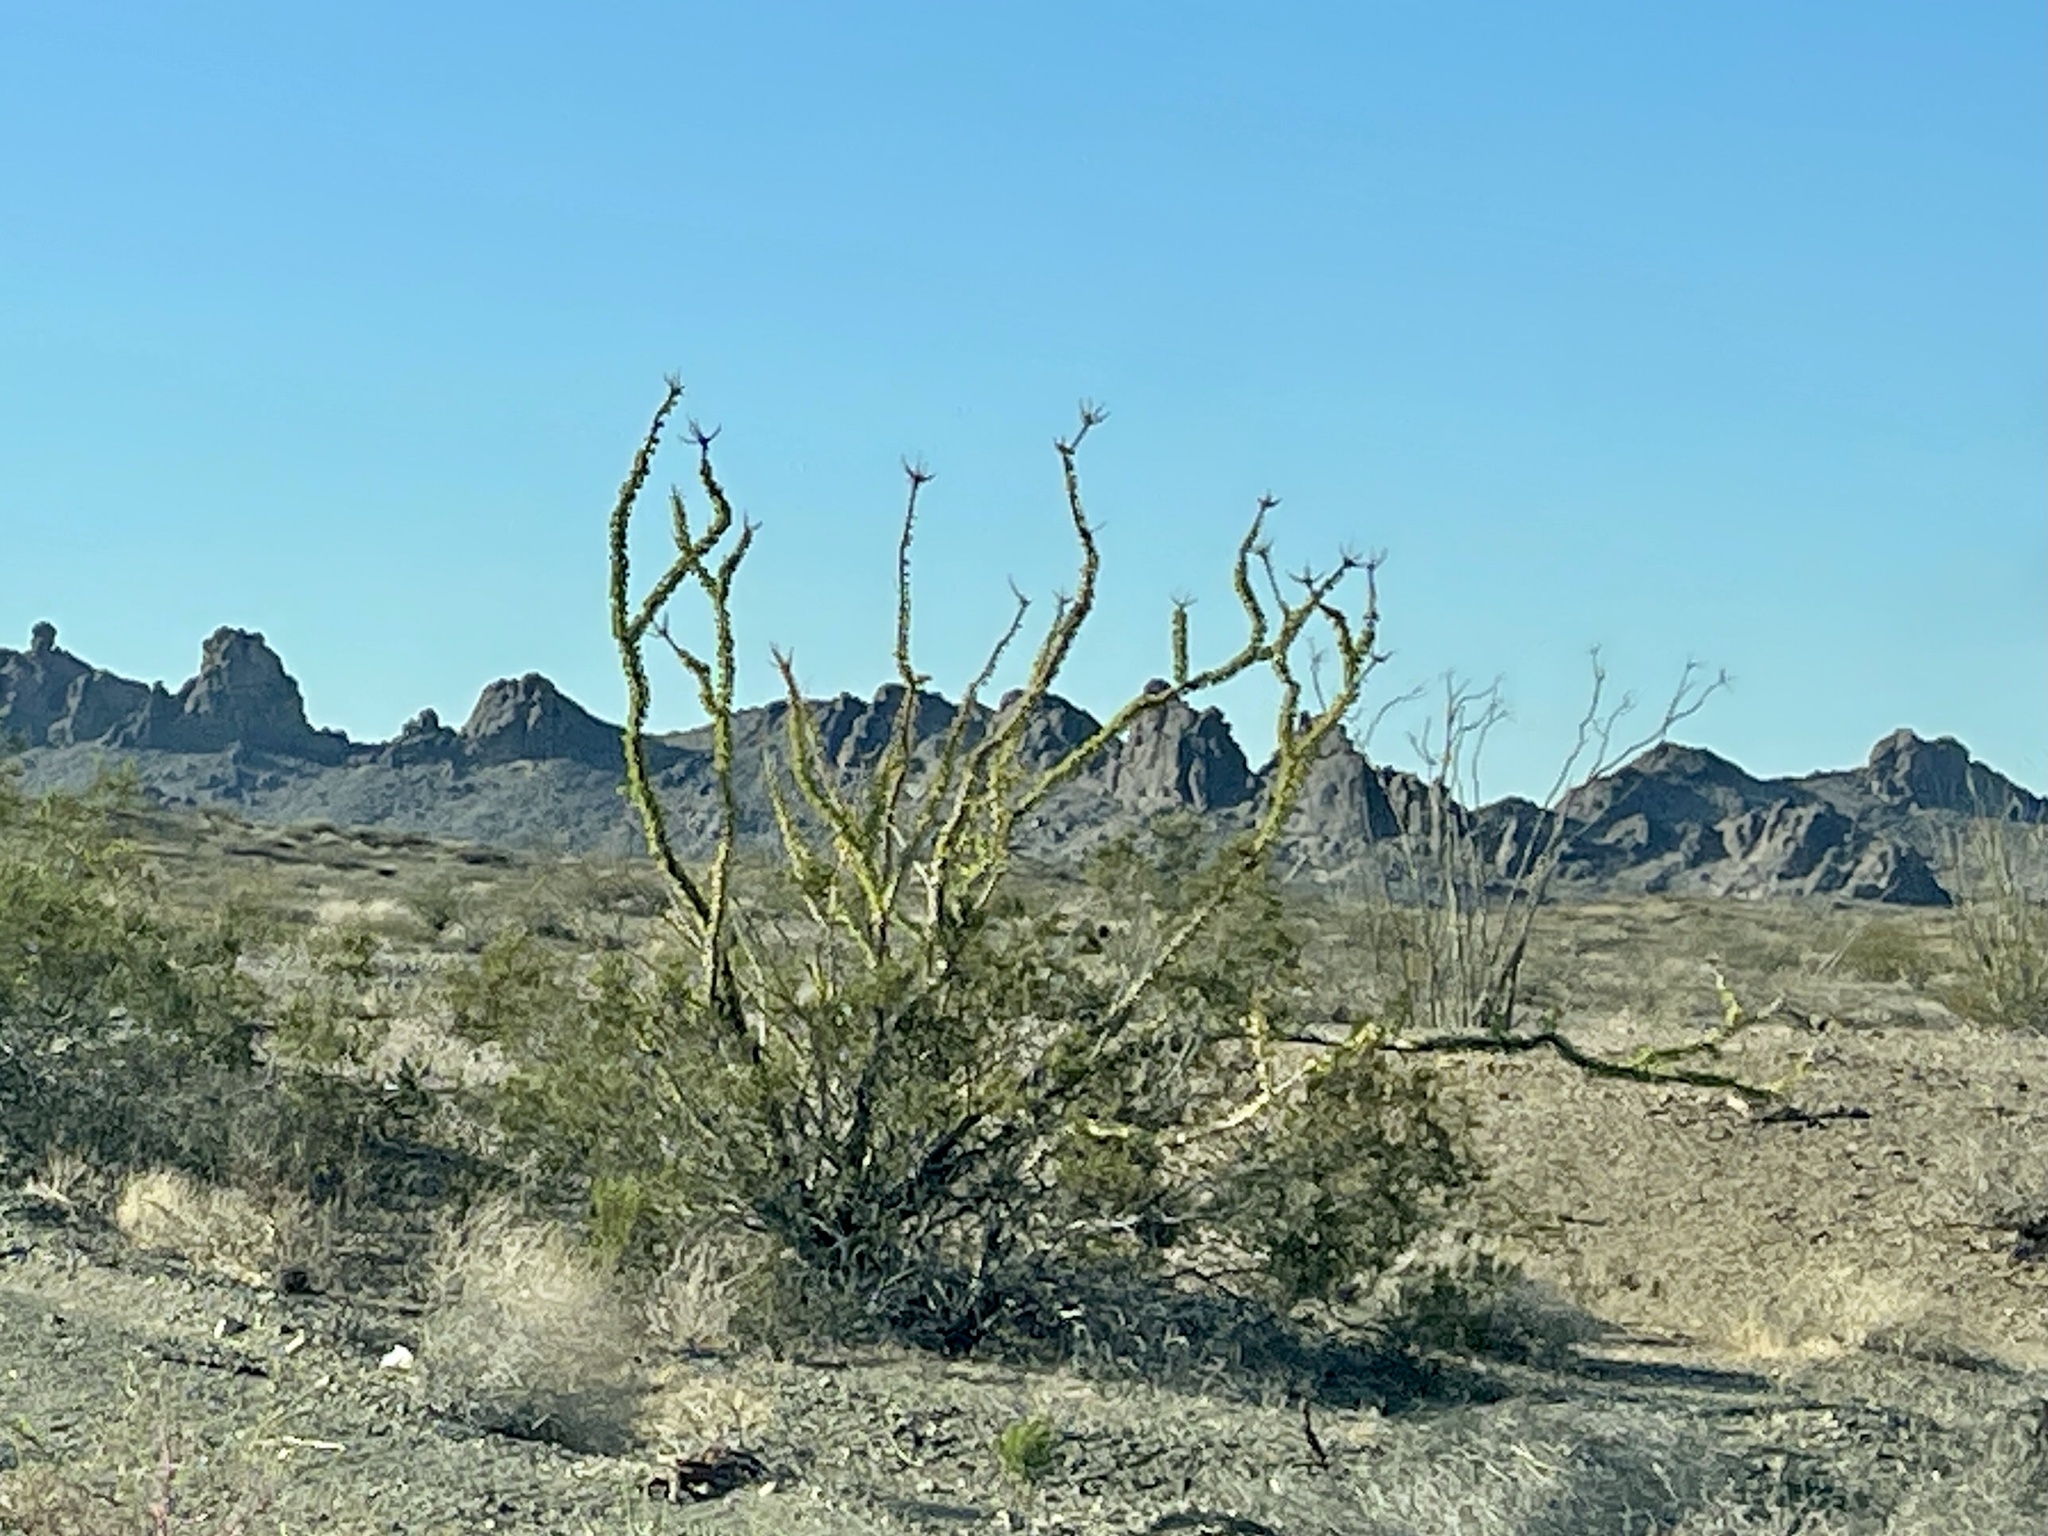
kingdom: Plantae
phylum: Tracheophyta
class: Magnoliopsida
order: Ericales
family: Fouquieriaceae
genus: Fouquieria
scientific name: Fouquieria splendens
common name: Vine-cactus
